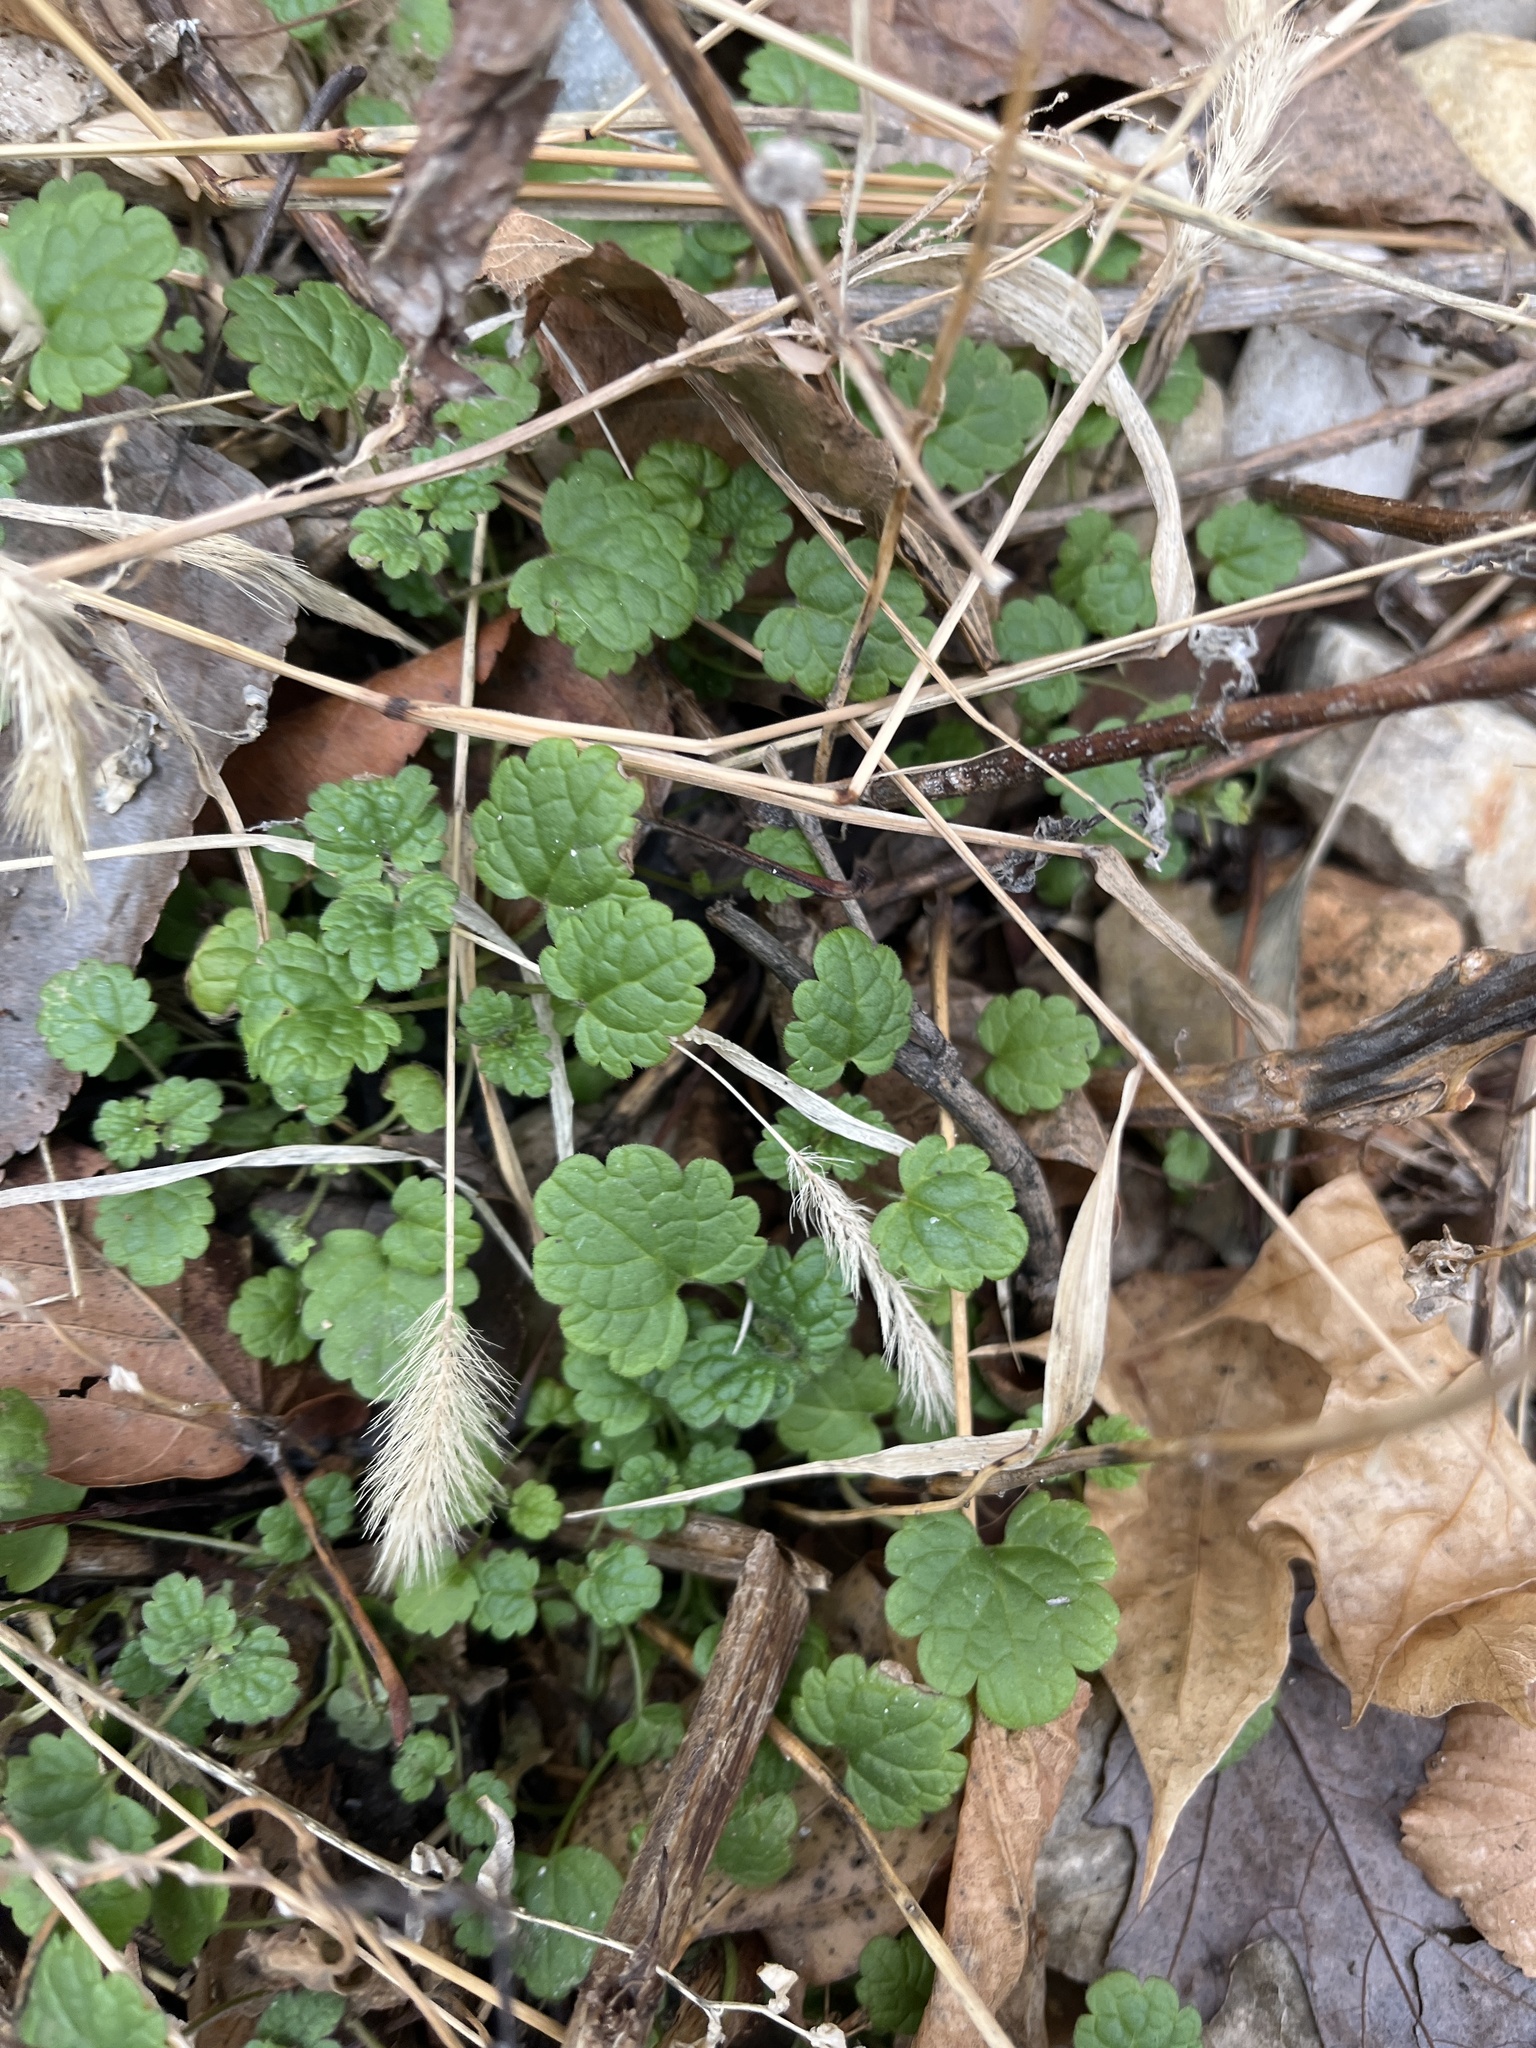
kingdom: Plantae
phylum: Tracheophyta
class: Magnoliopsida
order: Lamiales
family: Lamiaceae
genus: Lamium
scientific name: Lamium amplexicaule
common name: Henbit dead-nettle
